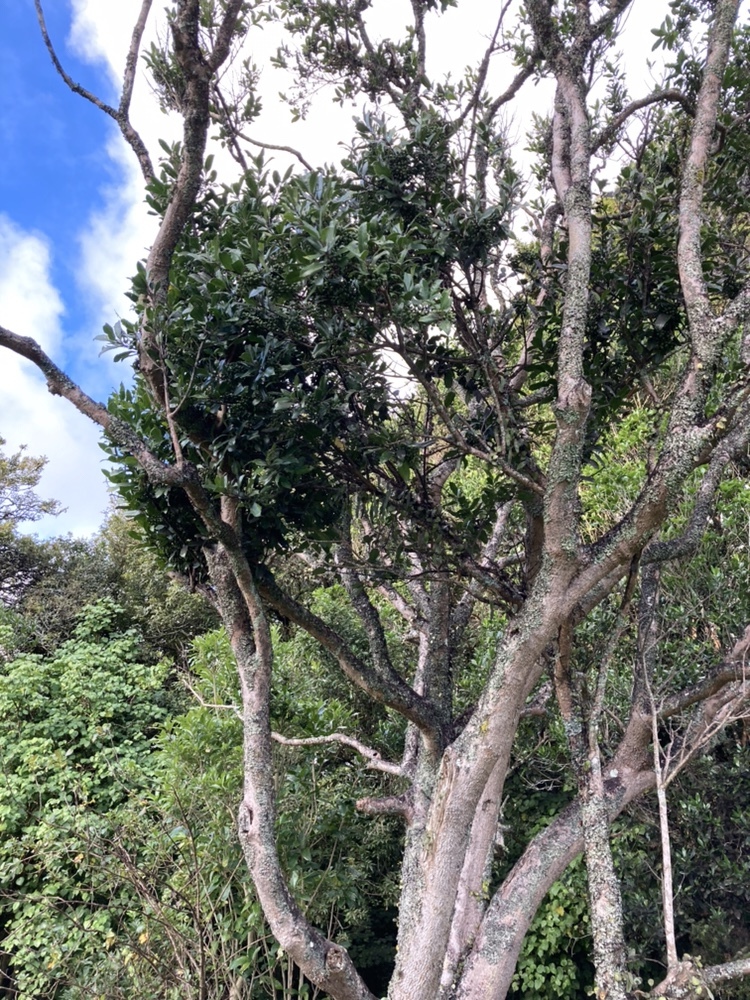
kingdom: Plantae
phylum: Tracheophyta
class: Magnoliopsida
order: Laurales
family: Monimiaceae
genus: Hedycarya
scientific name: Hedycarya arborea
